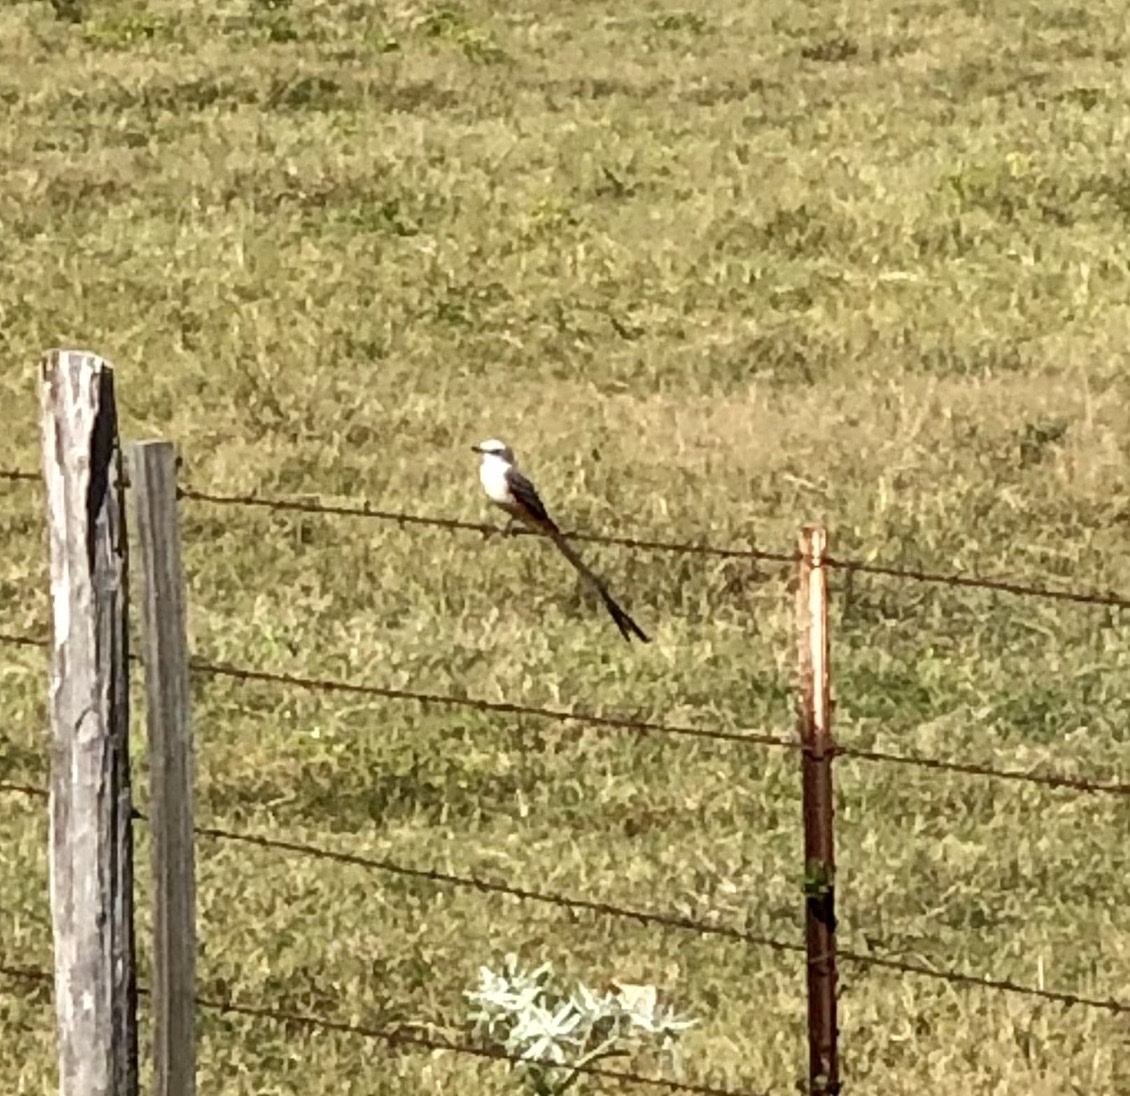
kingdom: Animalia
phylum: Chordata
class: Aves
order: Passeriformes
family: Tyrannidae
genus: Tyrannus
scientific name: Tyrannus forficatus
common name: Scissor-tailed flycatcher
